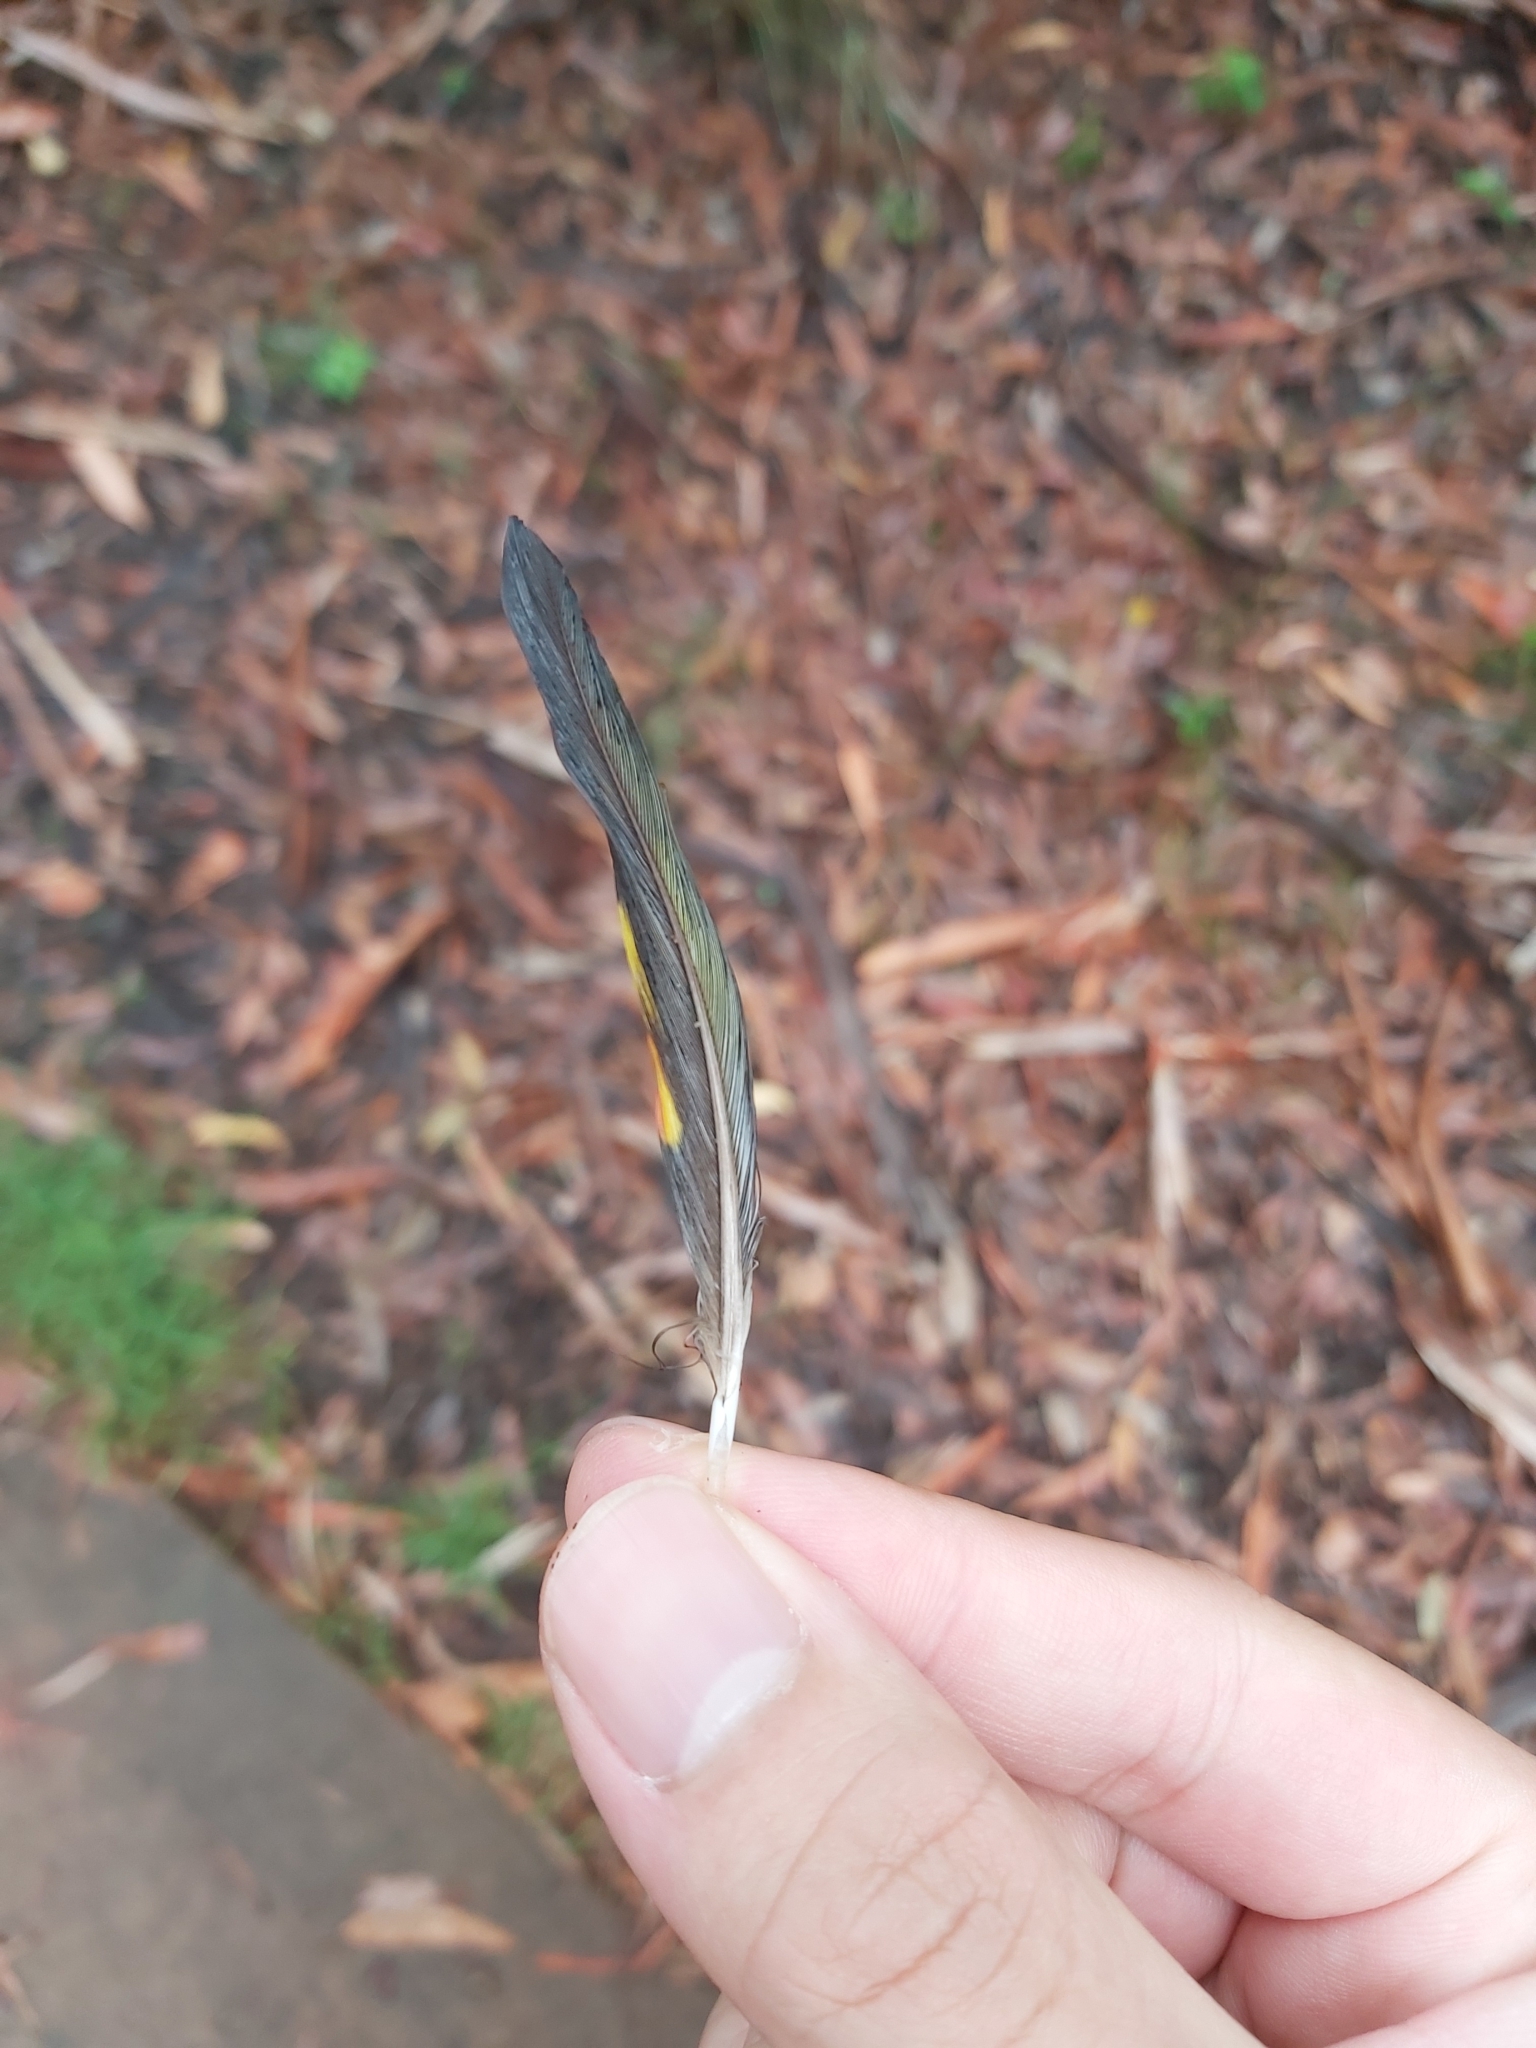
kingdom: Animalia
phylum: Chordata
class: Aves
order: Psittaciformes
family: Psittacidae
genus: Trichoglossus
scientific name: Trichoglossus haematodus
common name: Coconut lorikeet
